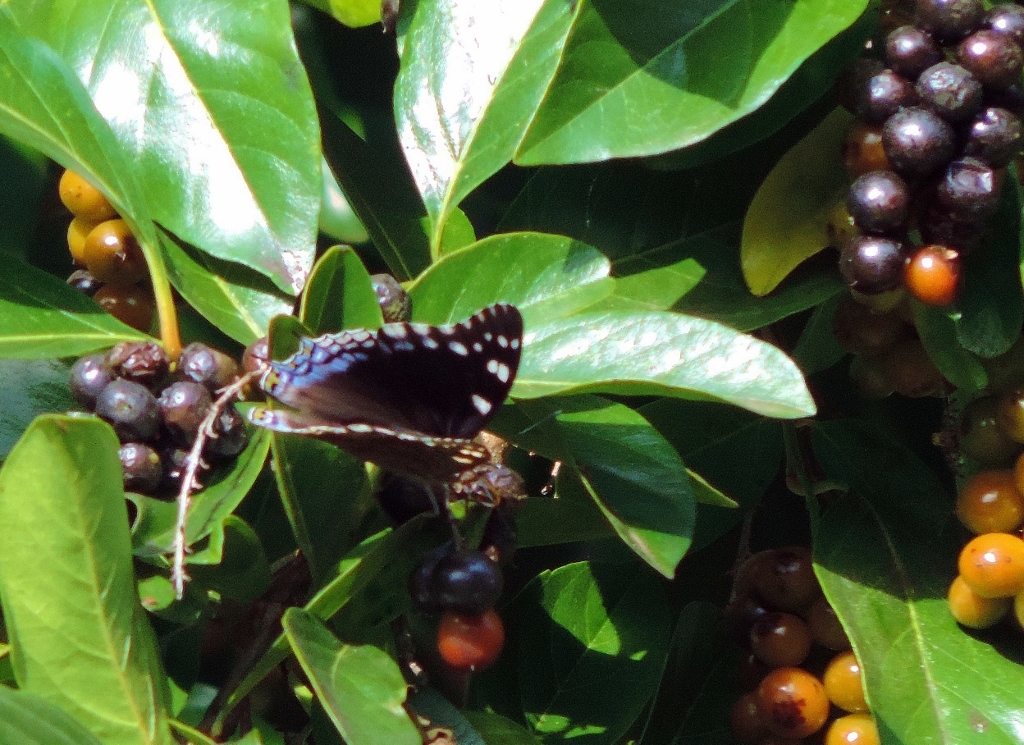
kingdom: Animalia
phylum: Arthropoda
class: Insecta
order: Lepidoptera
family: Nymphalidae
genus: Charaxes
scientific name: Charaxes guderiana
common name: Blue-spangled charaxes
